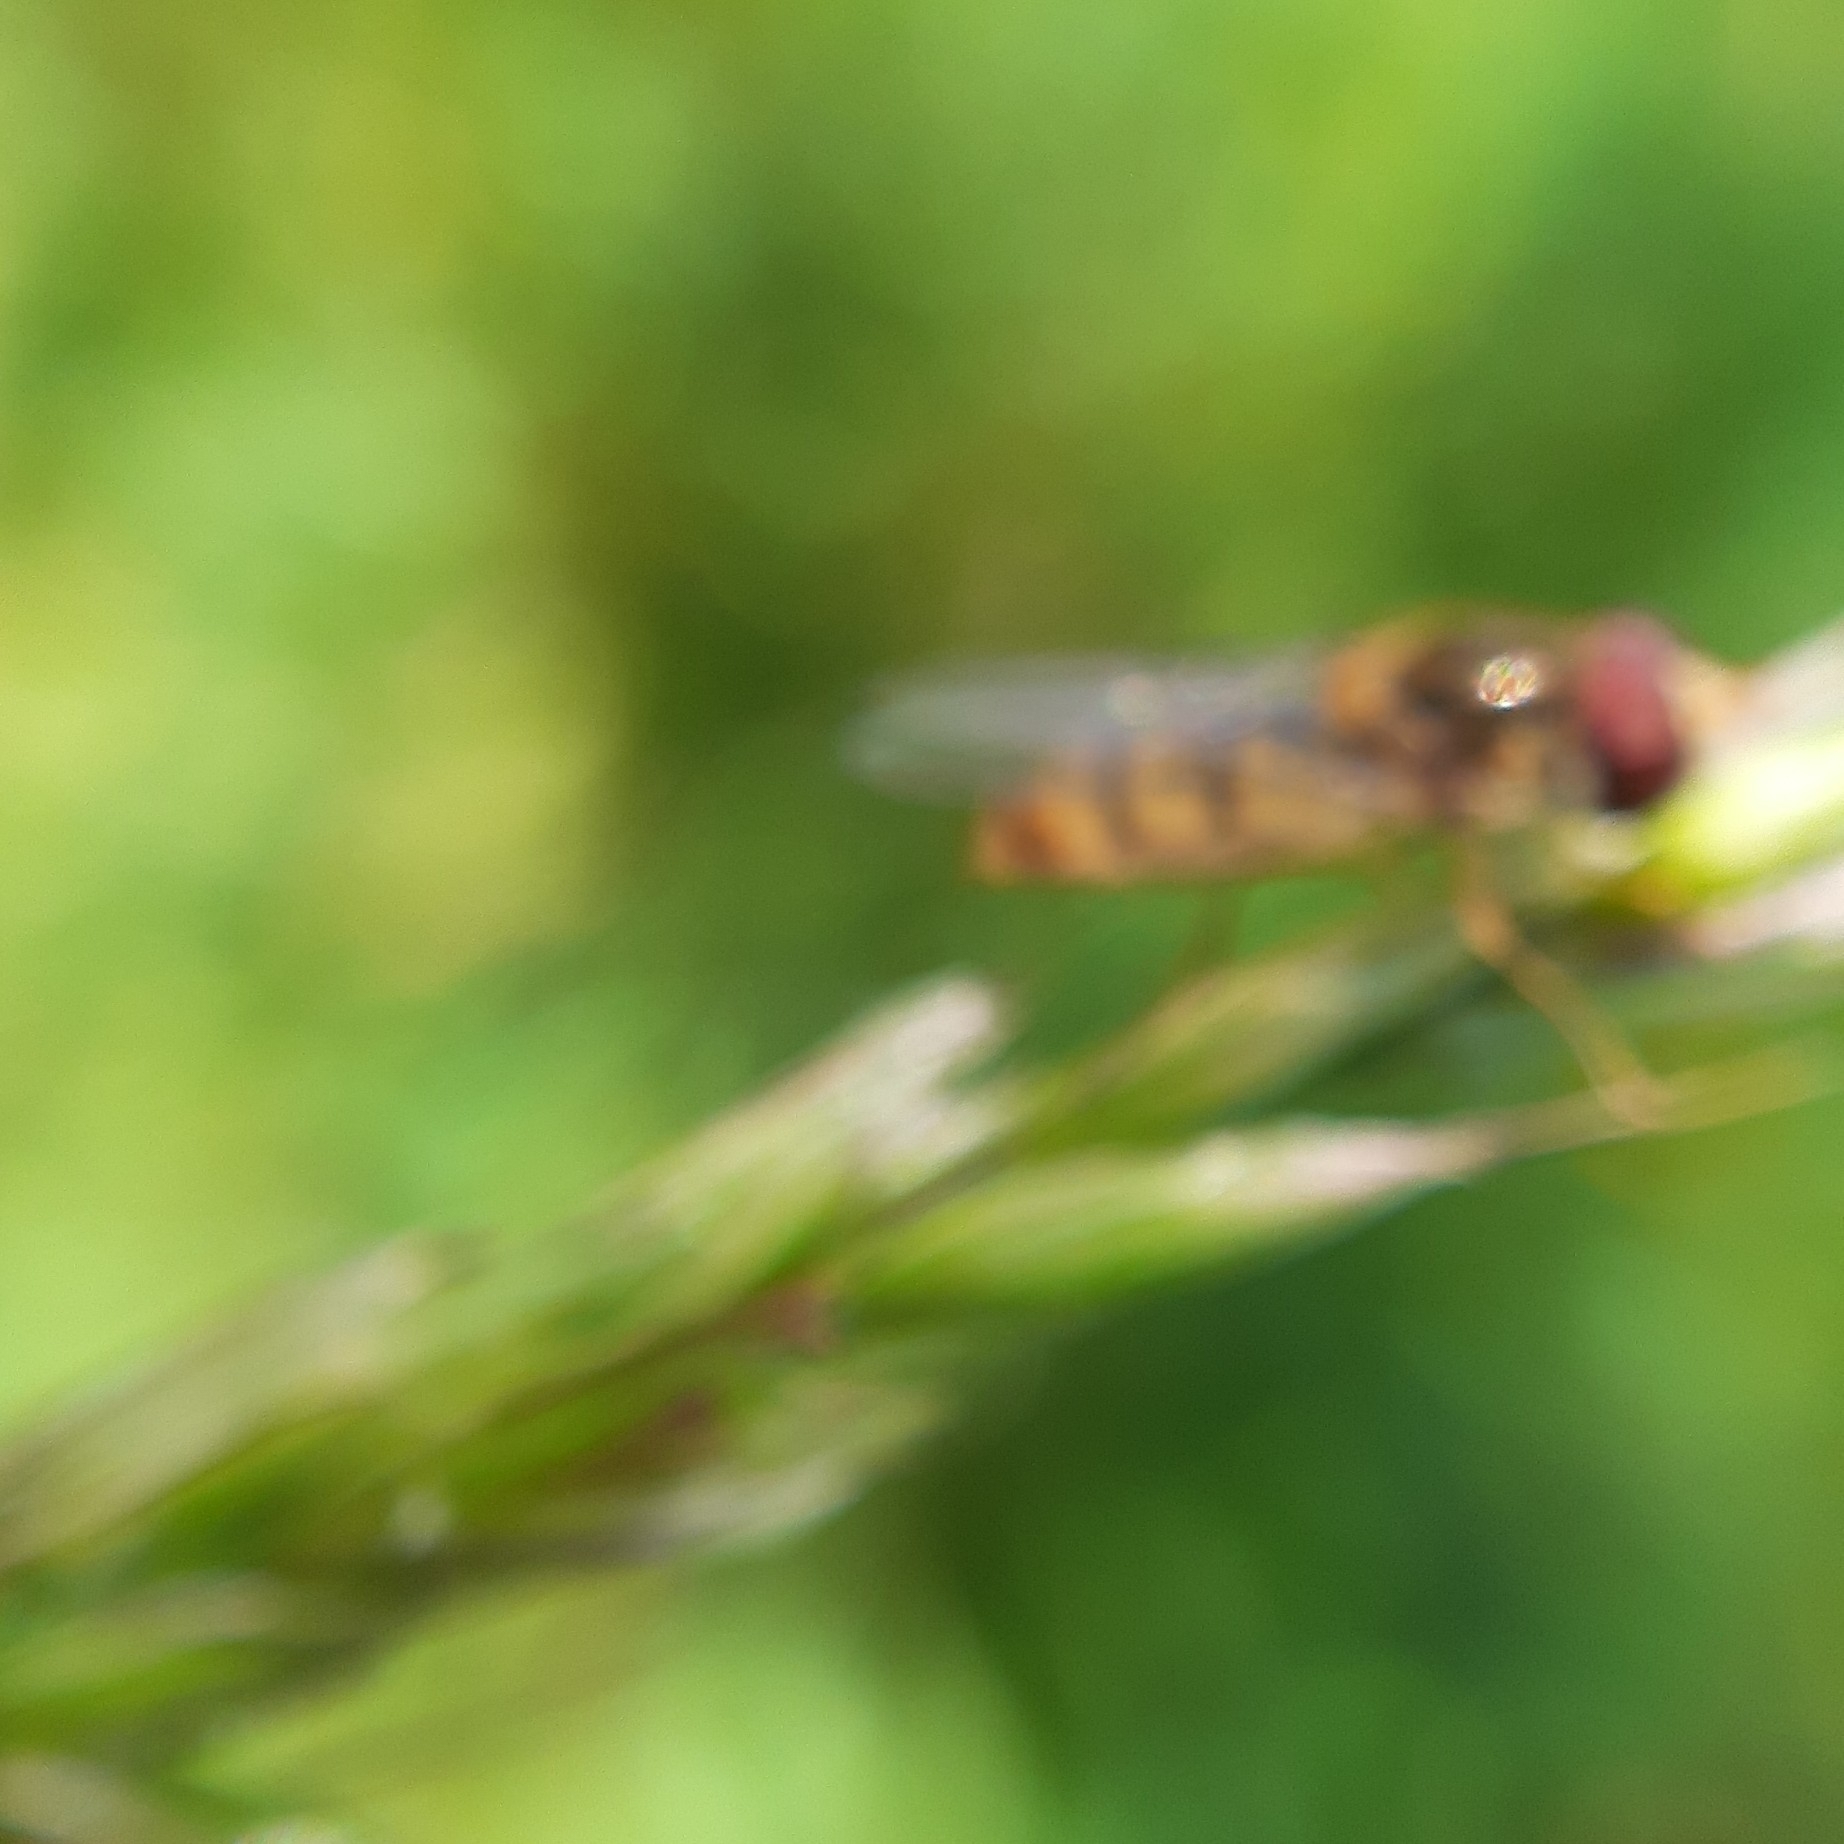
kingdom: Animalia
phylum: Arthropoda
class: Insecta
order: Diptera
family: Syrphidae
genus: Episyrphus
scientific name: Episyrphus balteatus
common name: Marmalade hoverfly
